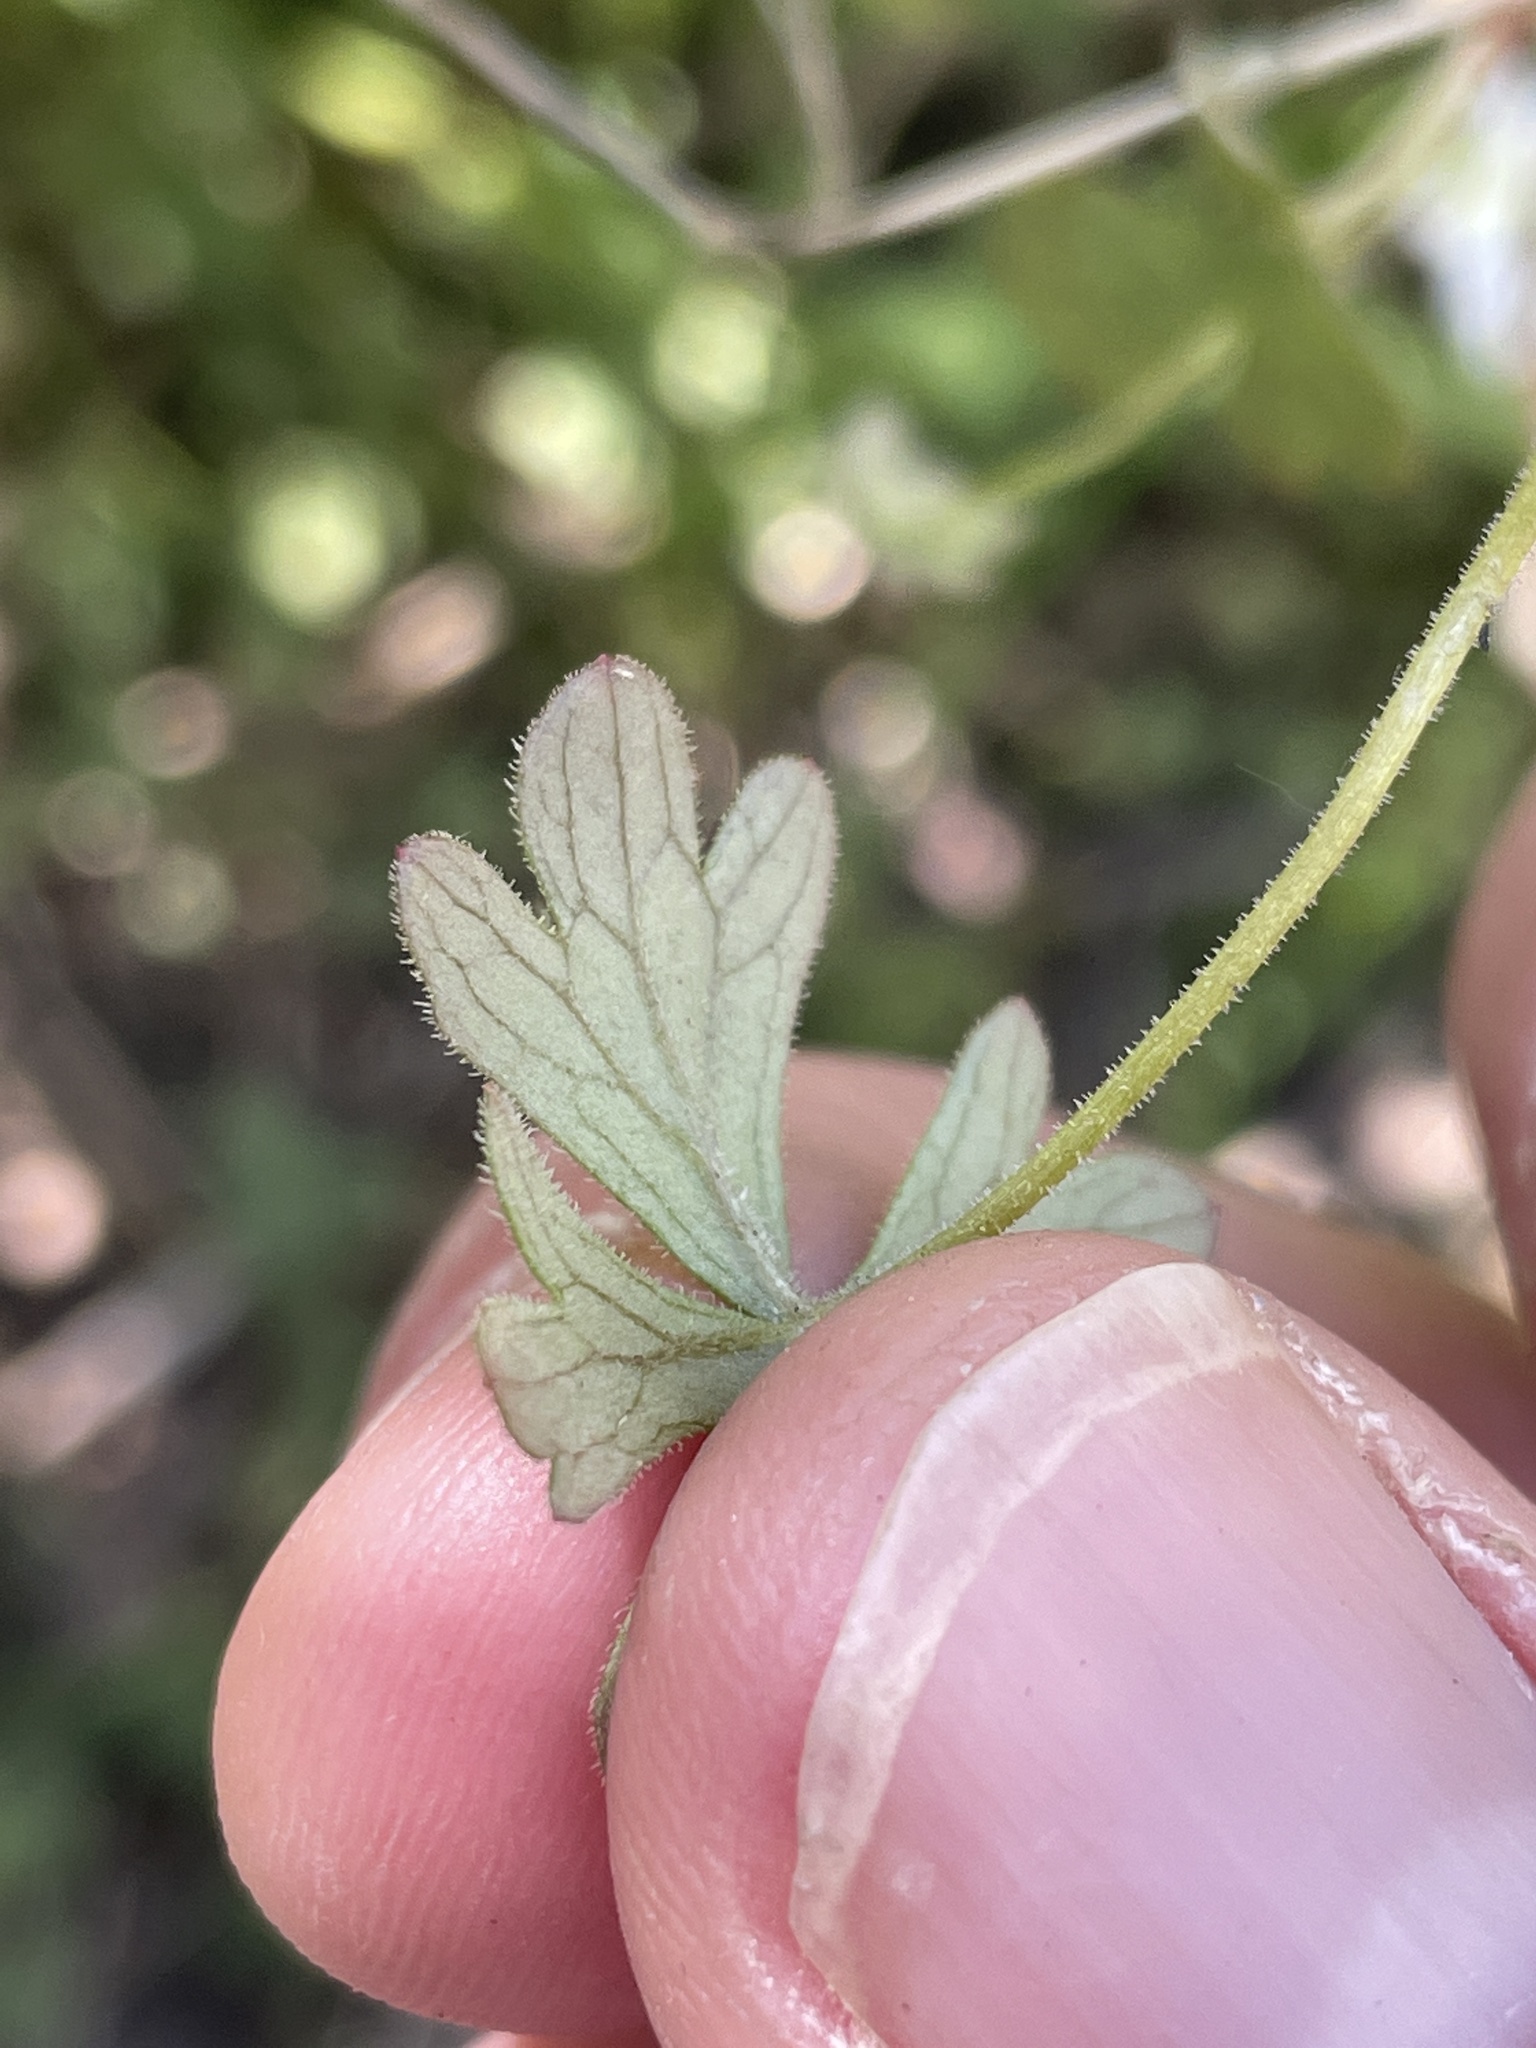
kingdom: Plantae
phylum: Tracheophyta
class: Magnoliopsida
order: Saxifragales
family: Saxifragaceae
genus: Lithophragma
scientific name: Lithophragma parviflorum
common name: Small-flowered fringe-cup
